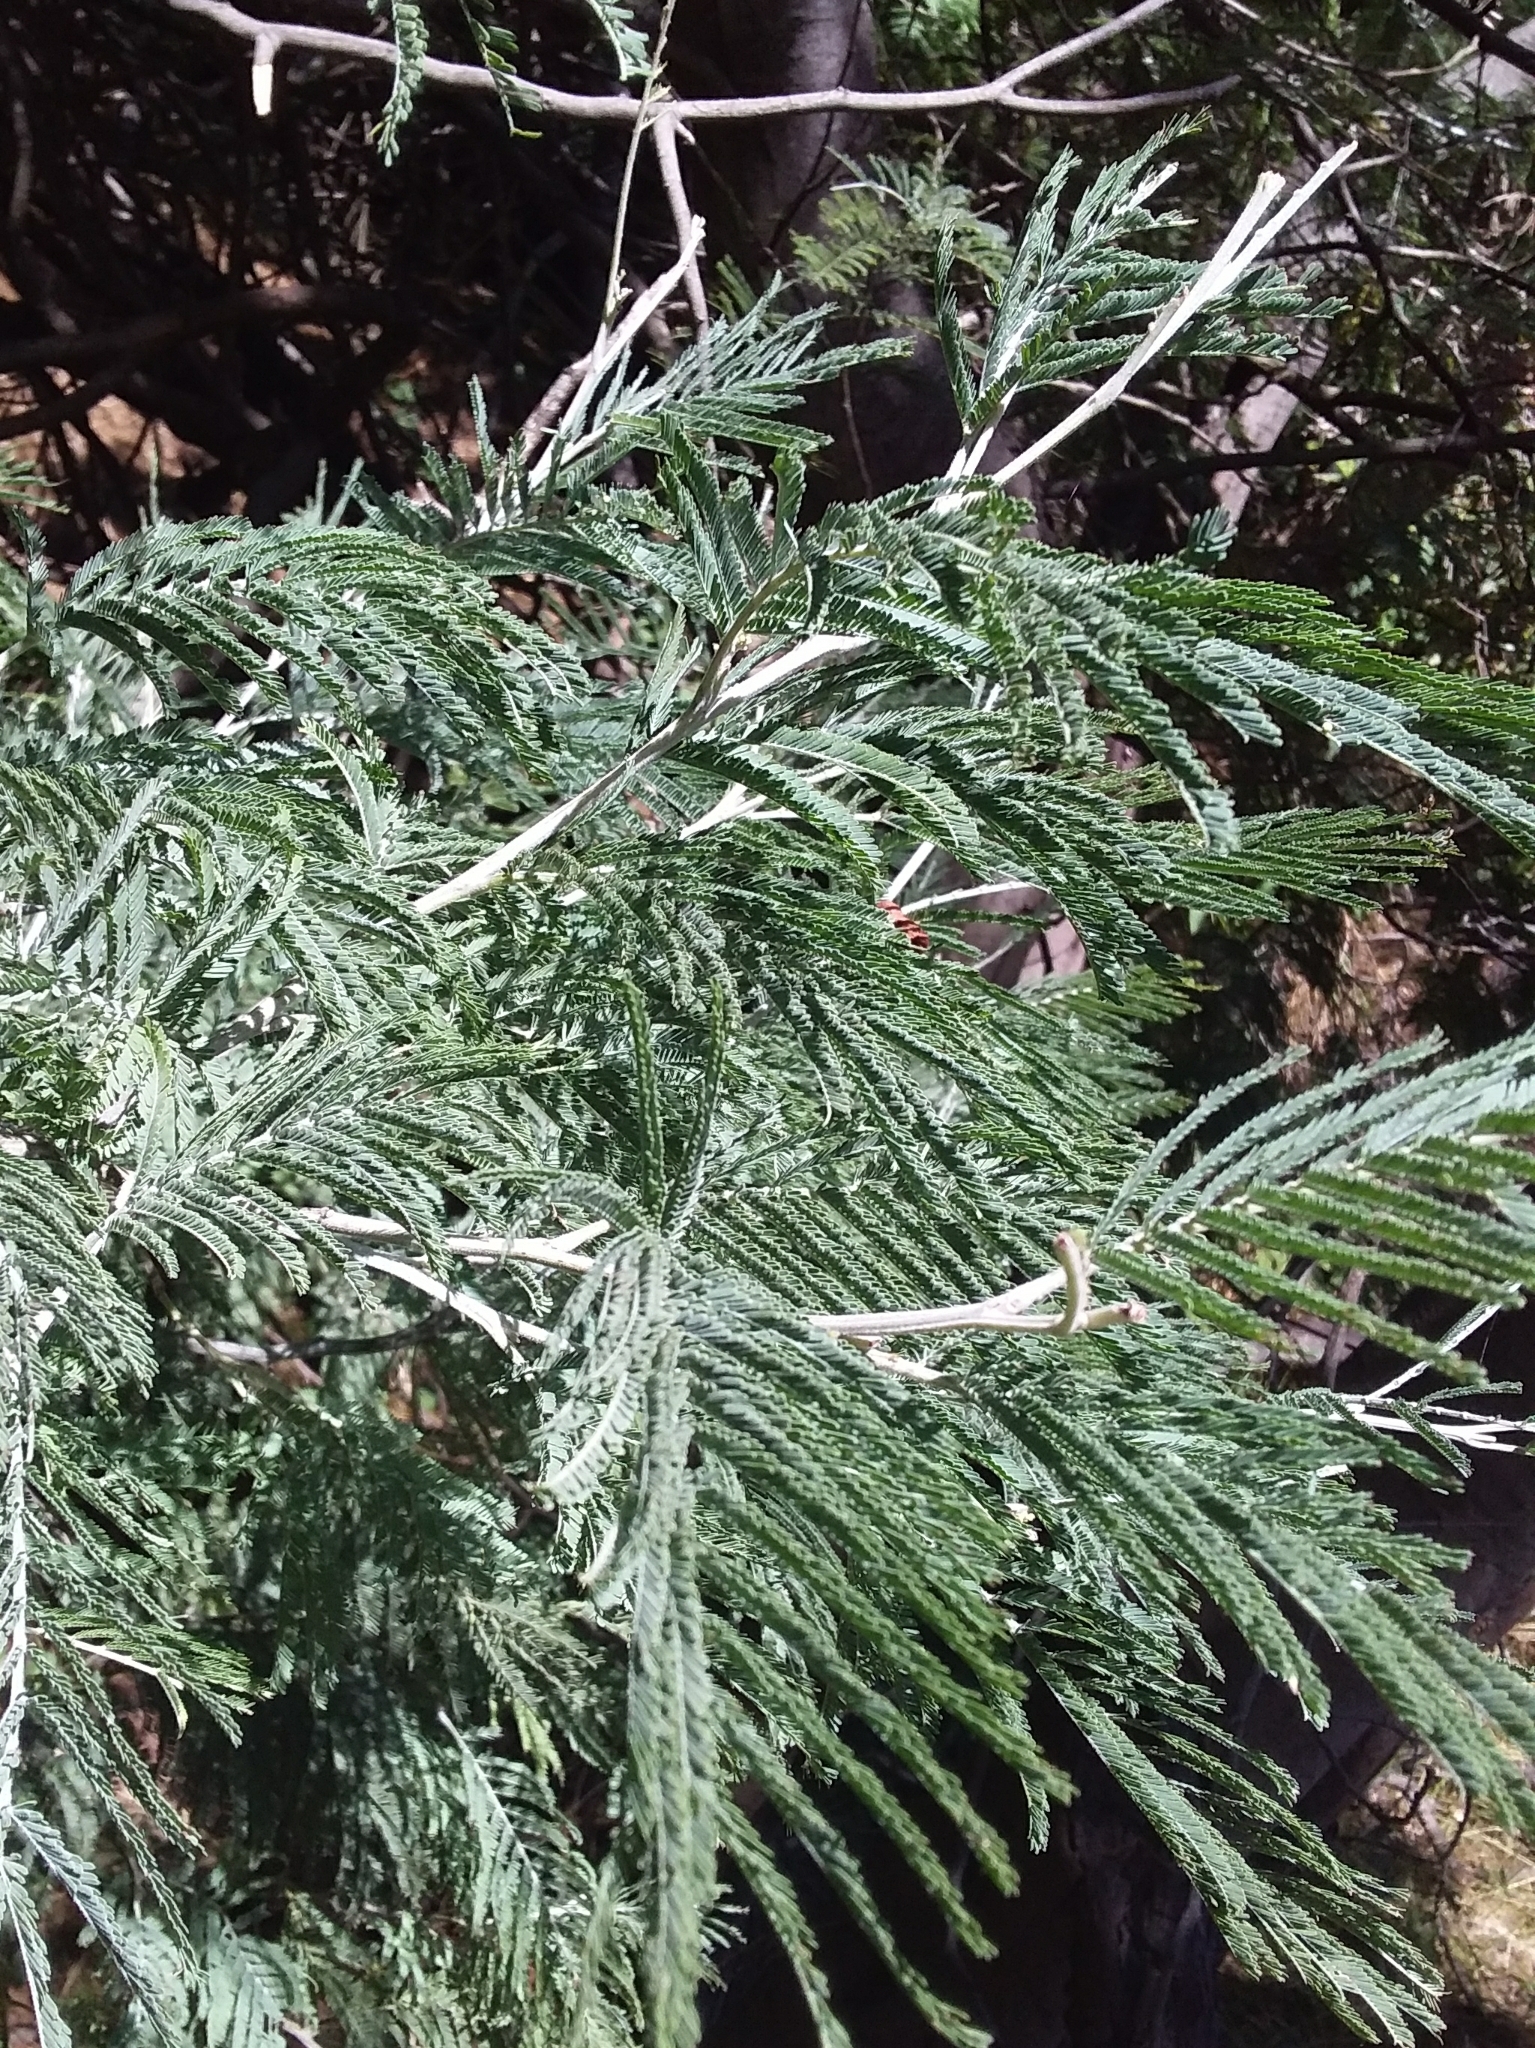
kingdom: Plantae
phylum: Tracheophyta
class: Magnoliopsida
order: Fabales
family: Fabaceae
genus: Acacia
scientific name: Acacia dealbata
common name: Silver wattle
